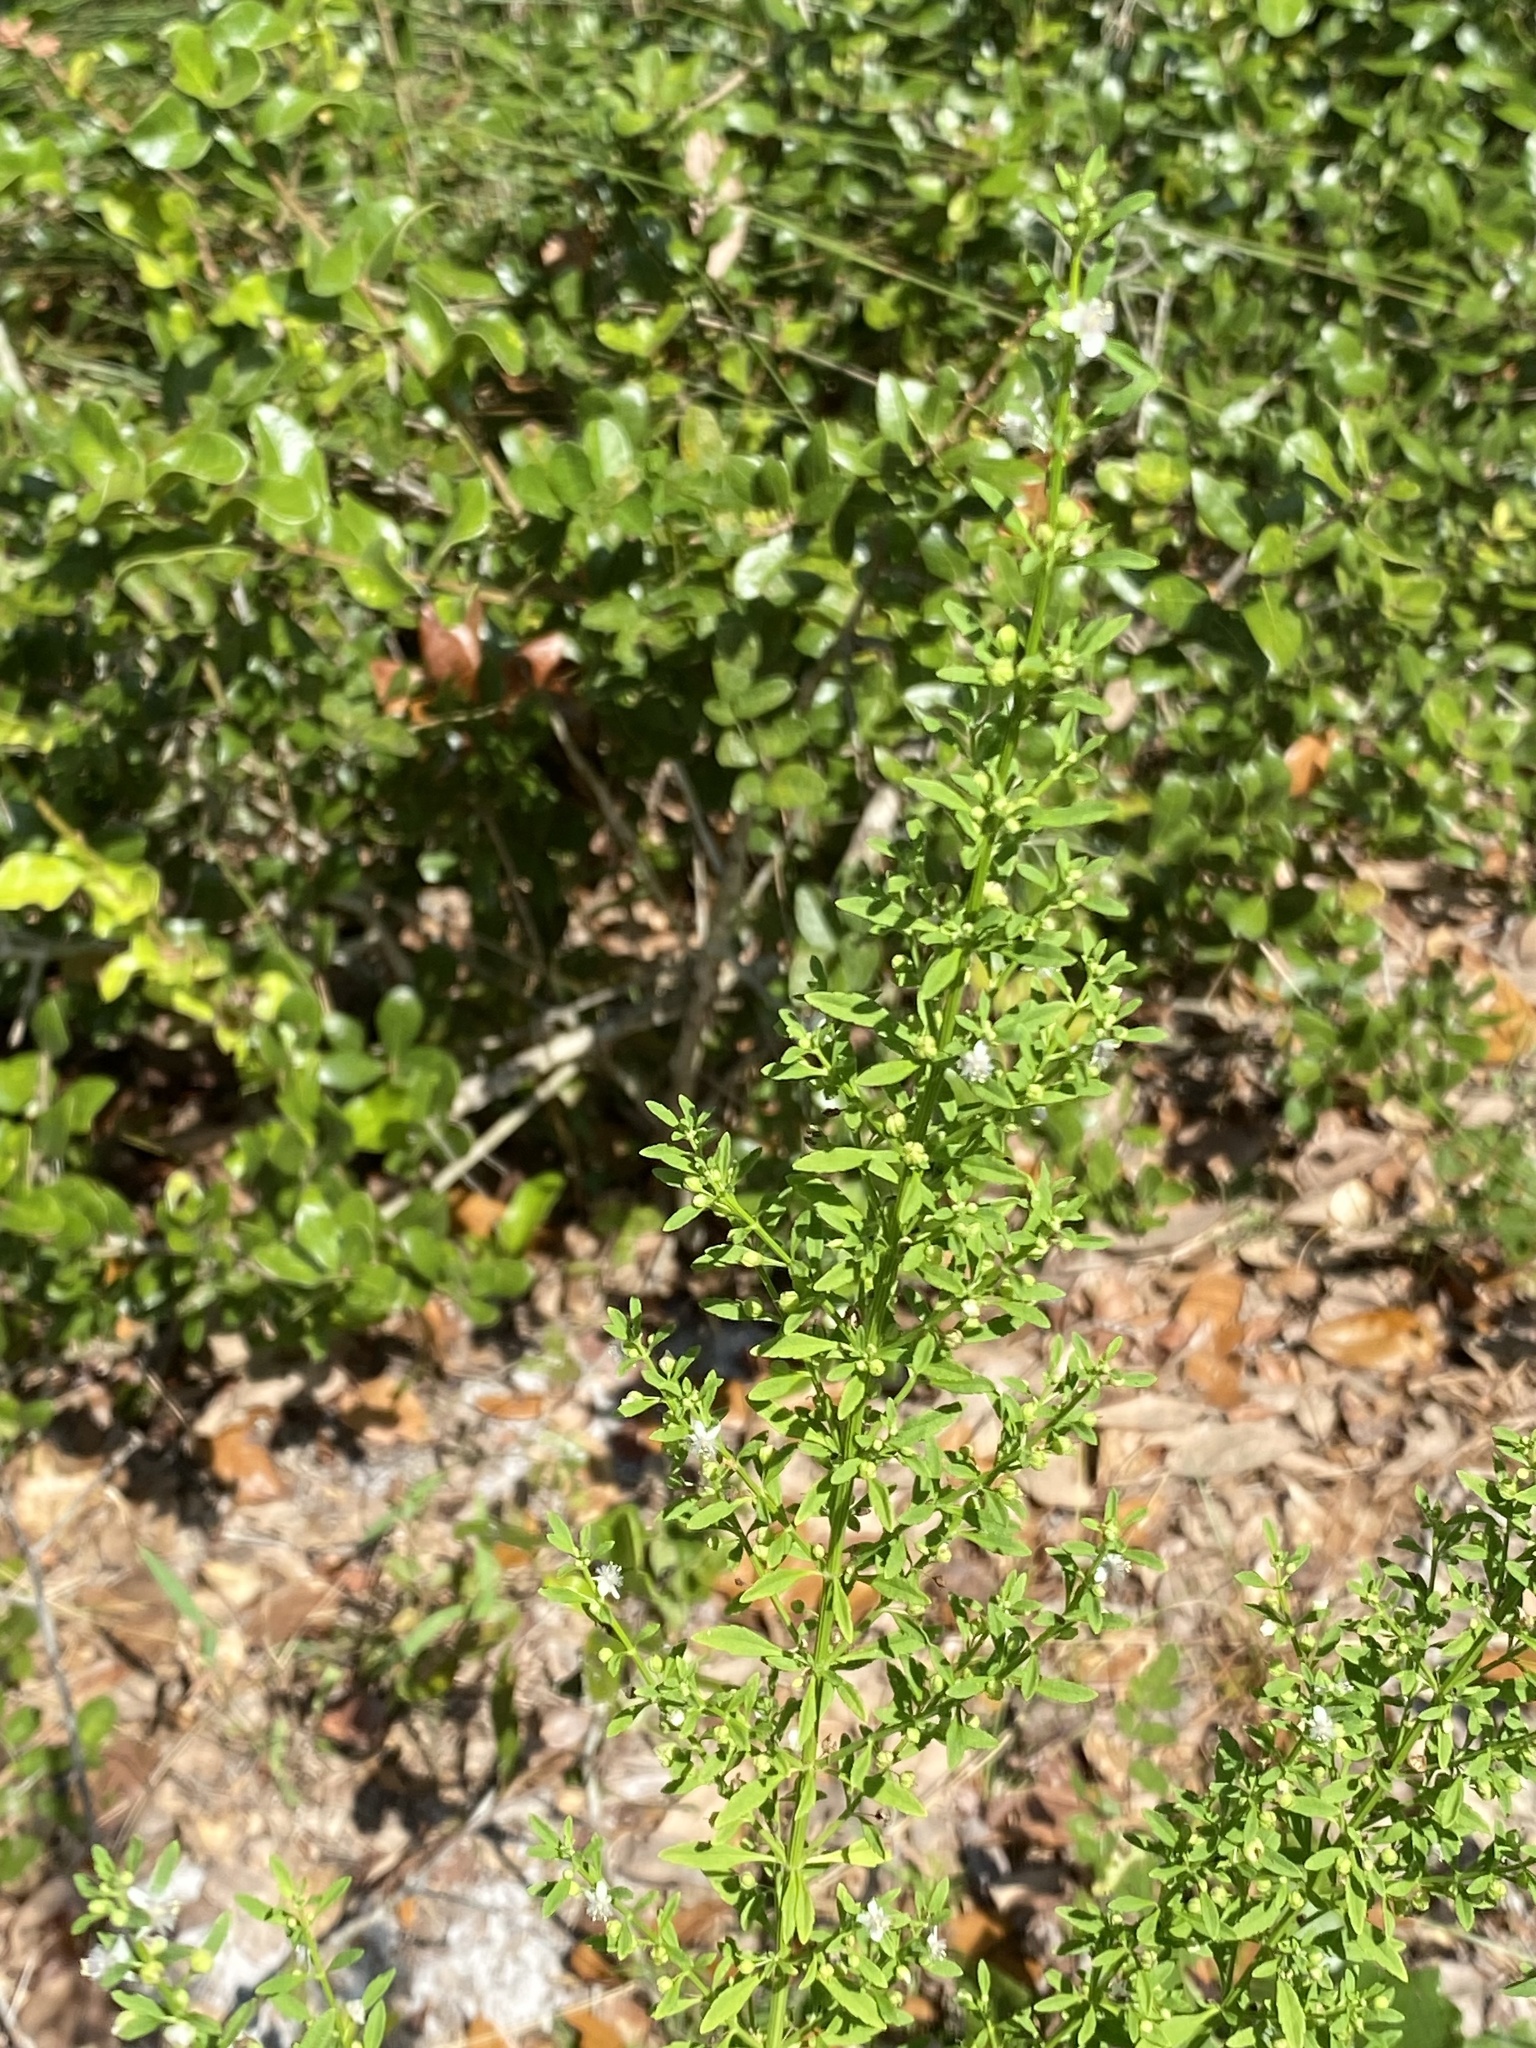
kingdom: Plantae
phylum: Tracheophyta
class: Magnoliopsida
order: Lamiales
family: Plantaginaceae
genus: Scoparia
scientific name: Scoparia dulcis
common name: Scoparia-weed
